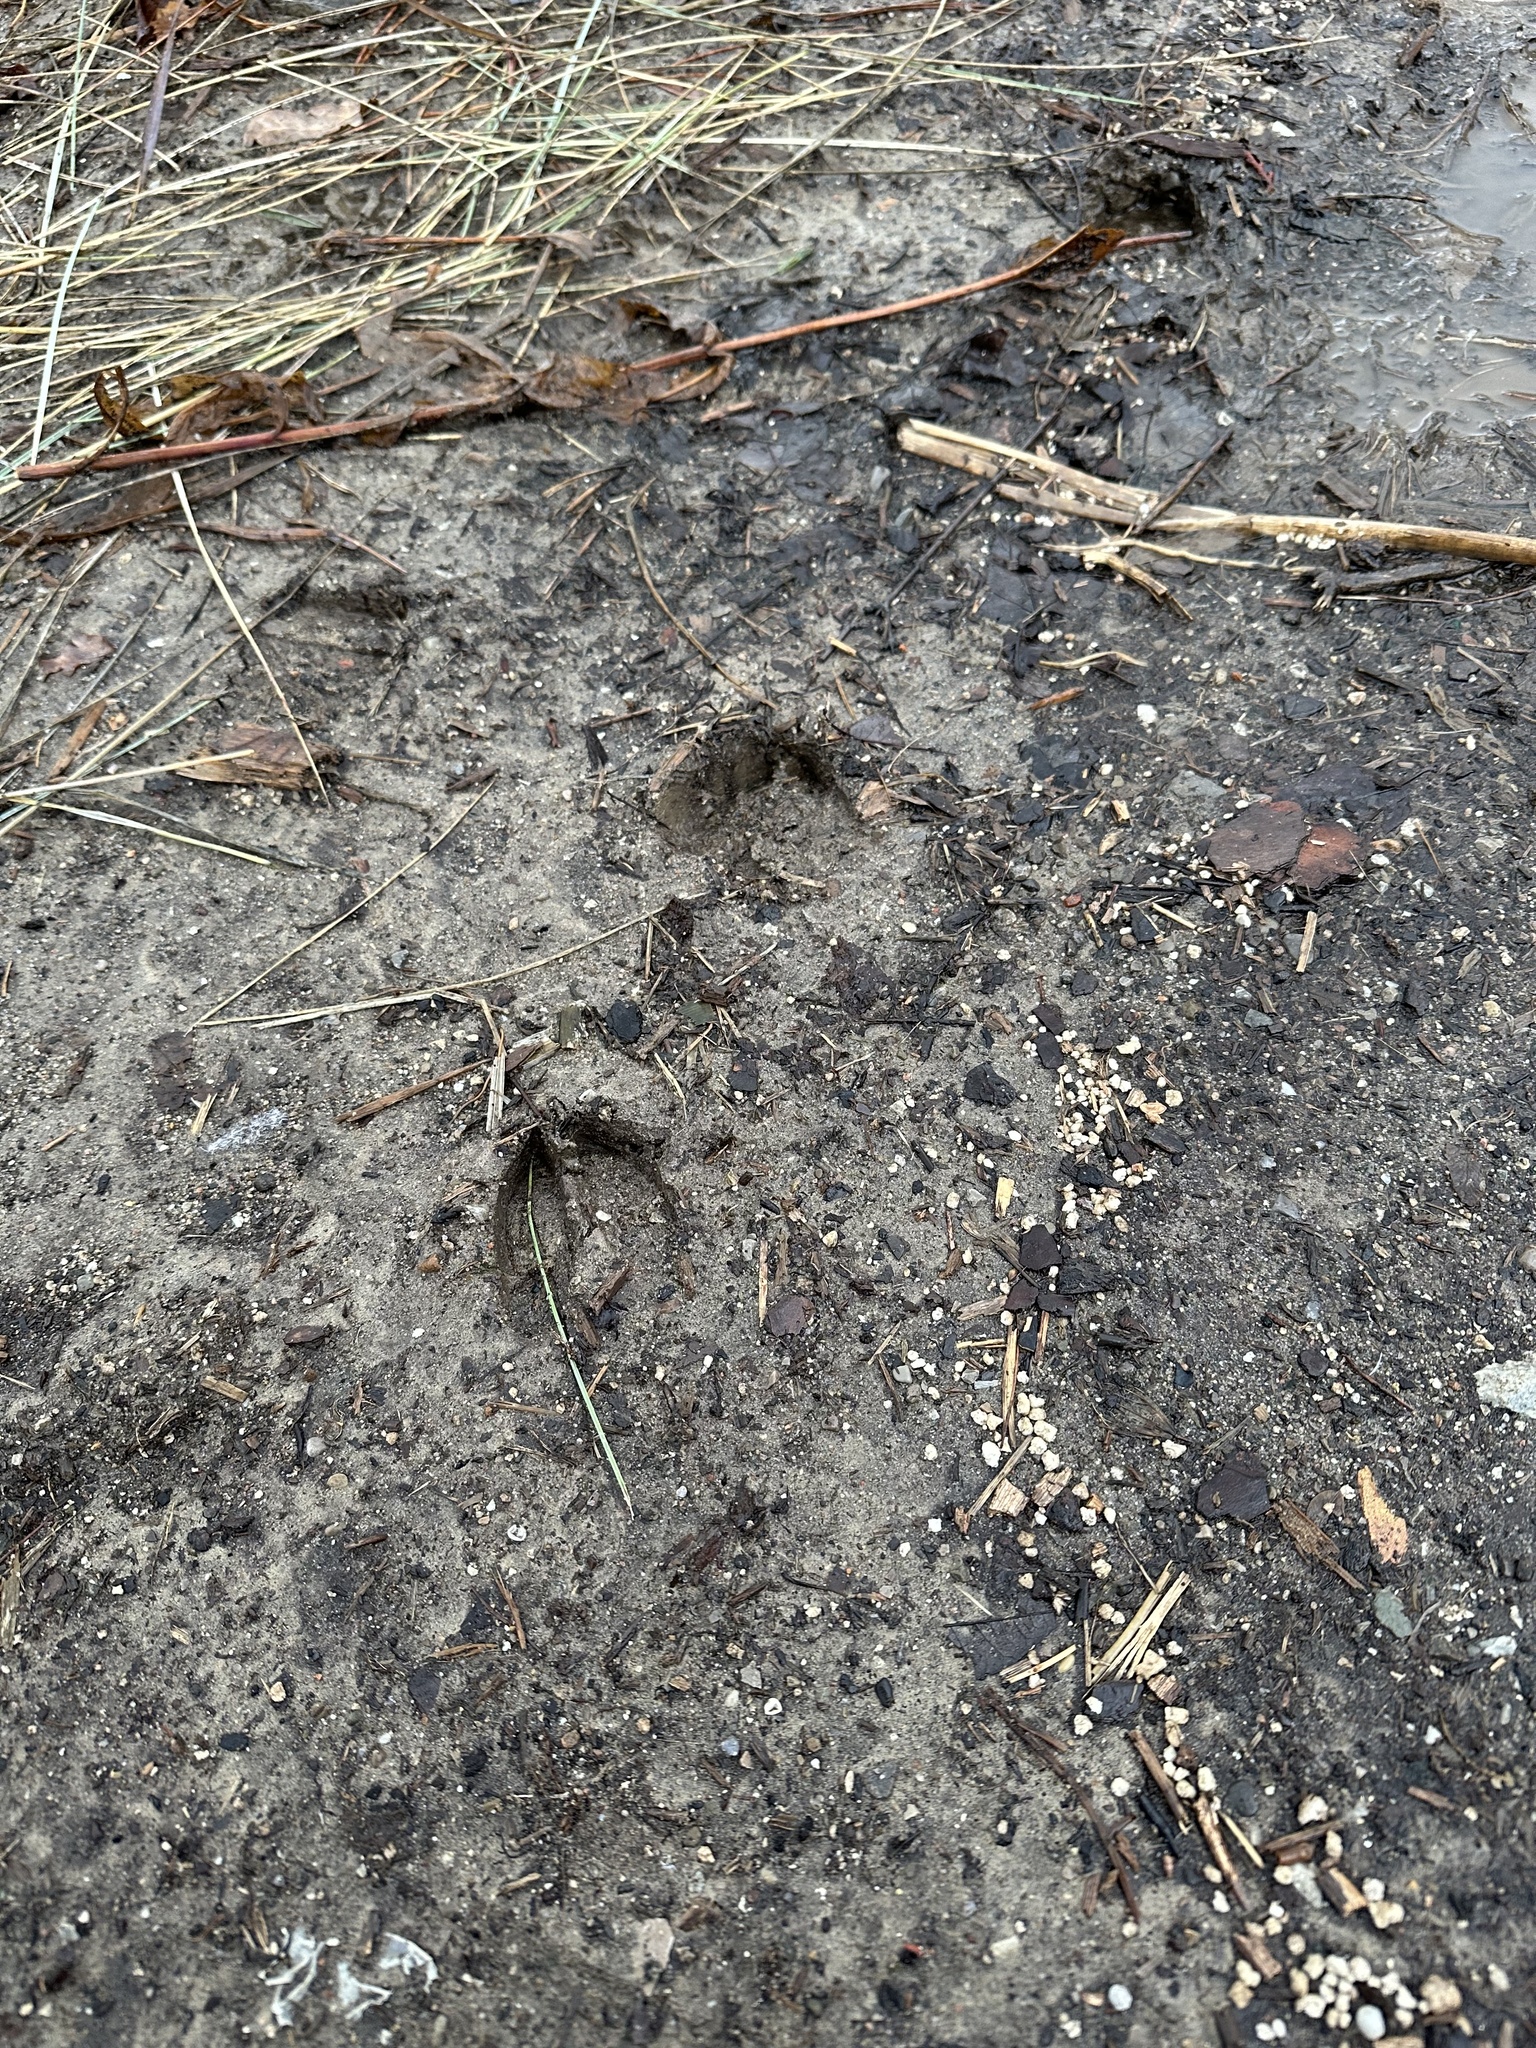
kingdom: Animalia
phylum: Chordata
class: Mammalia
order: Artiodactyla
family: Cervidae
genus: Odocoileus
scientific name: Odocoileus virginianus
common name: White-tailed deer
